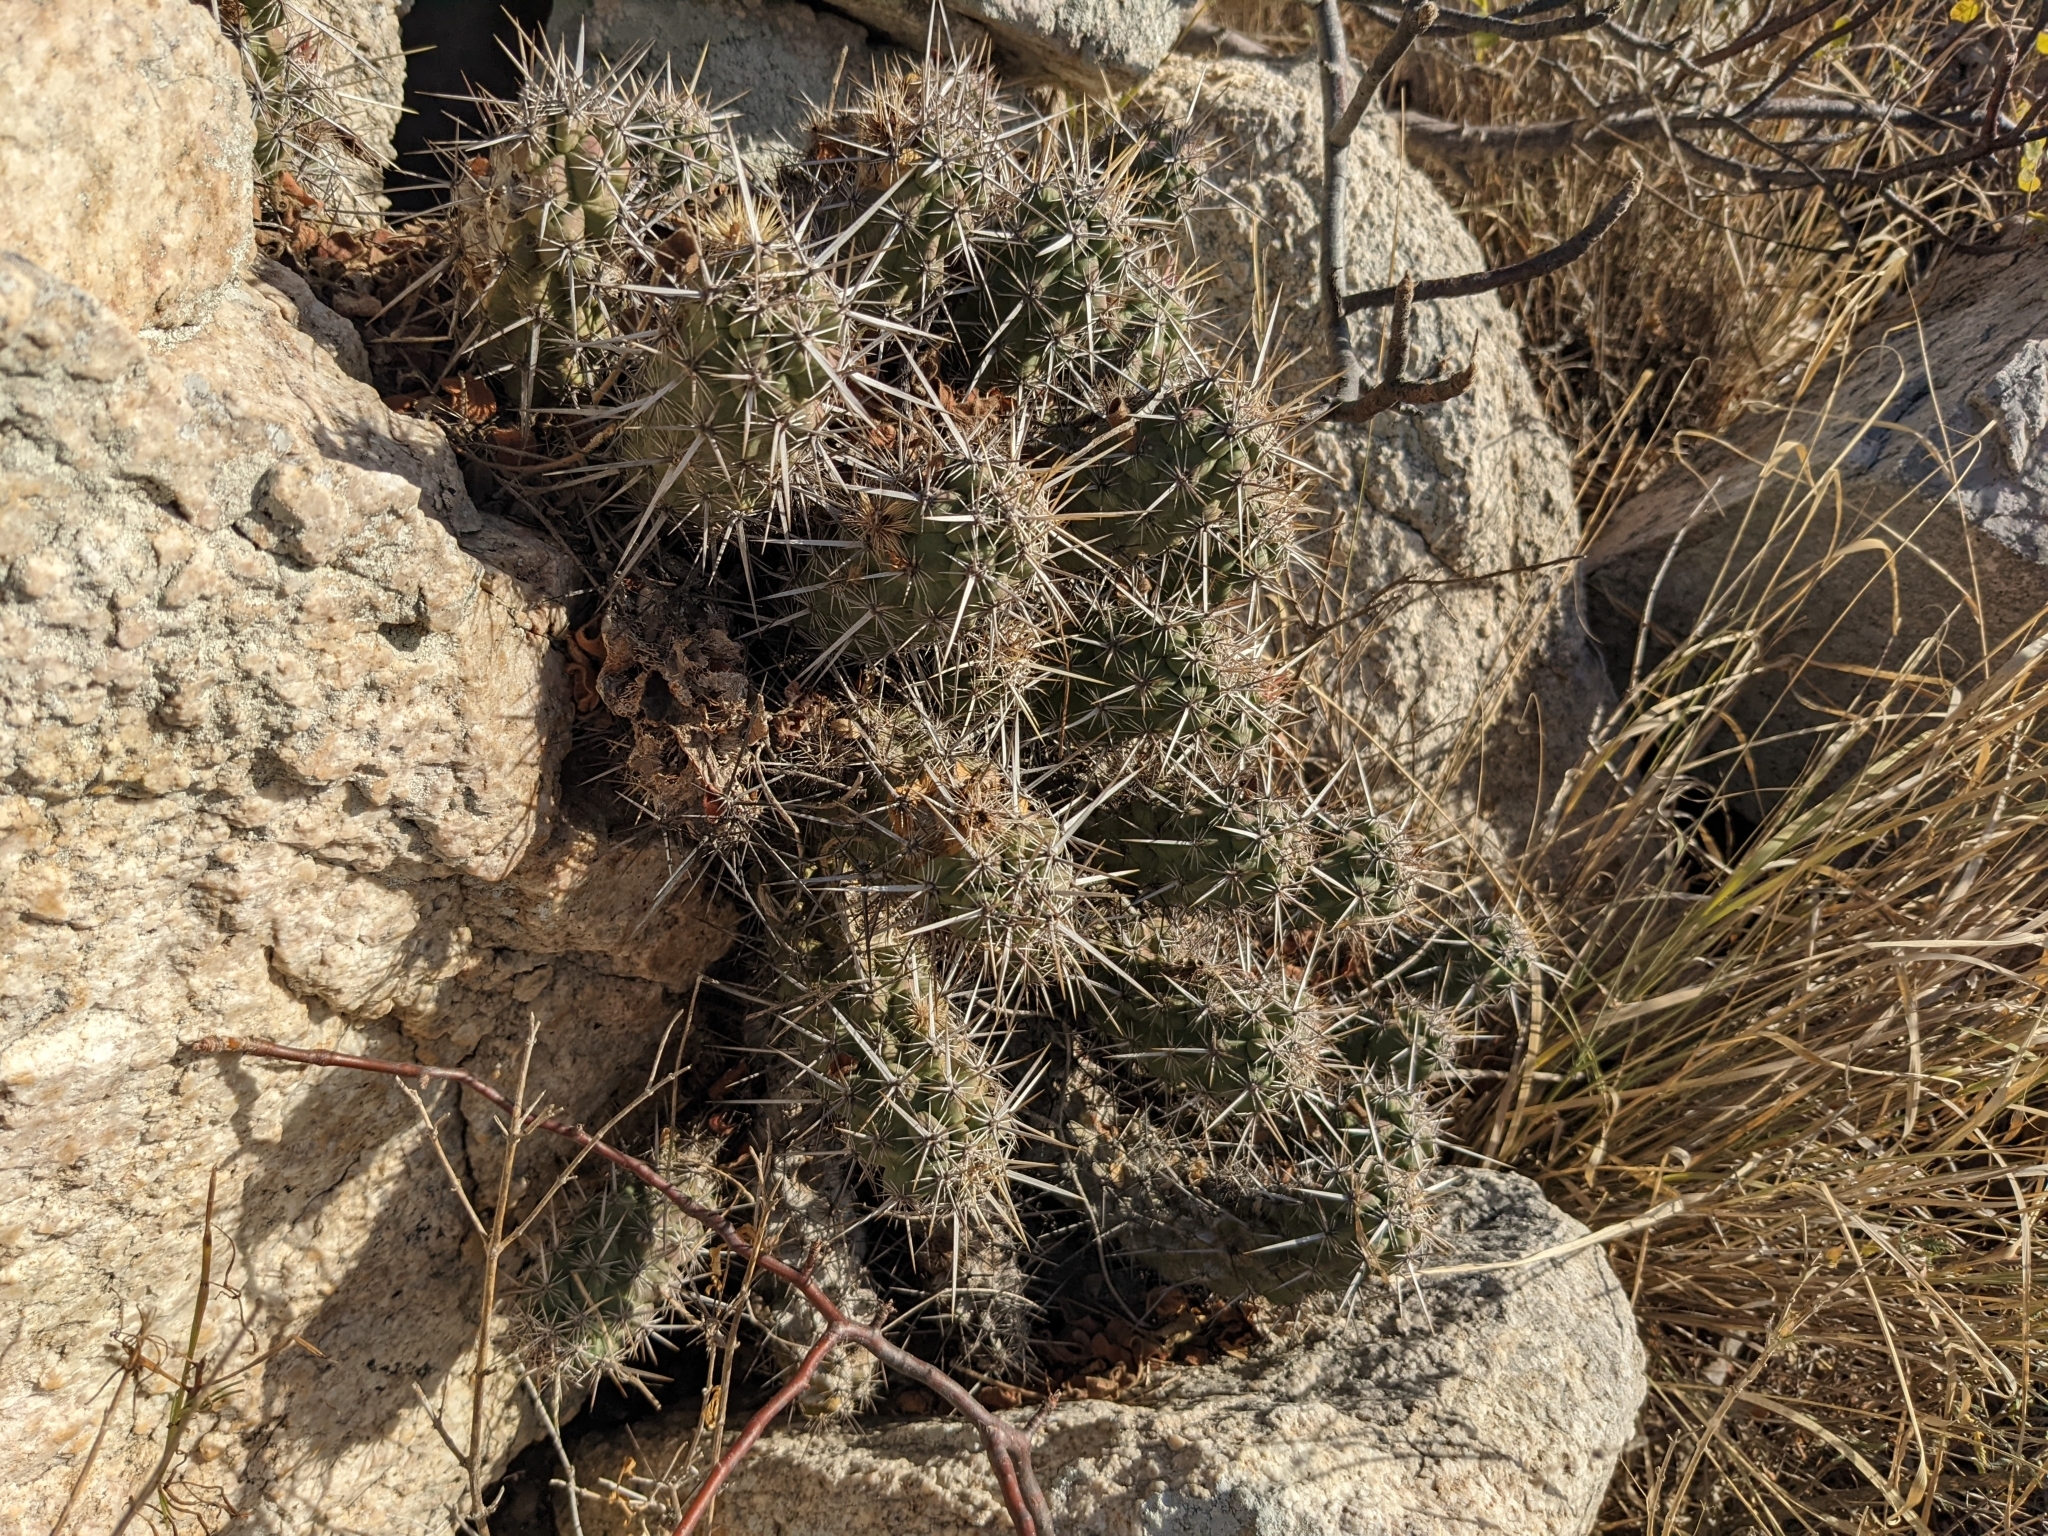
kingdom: Plantae
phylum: Tracheophyta
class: Magnoliopsida
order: Caryophyllales
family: Cactaceae
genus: Echinocereus
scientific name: Echinocereus brandegeei
